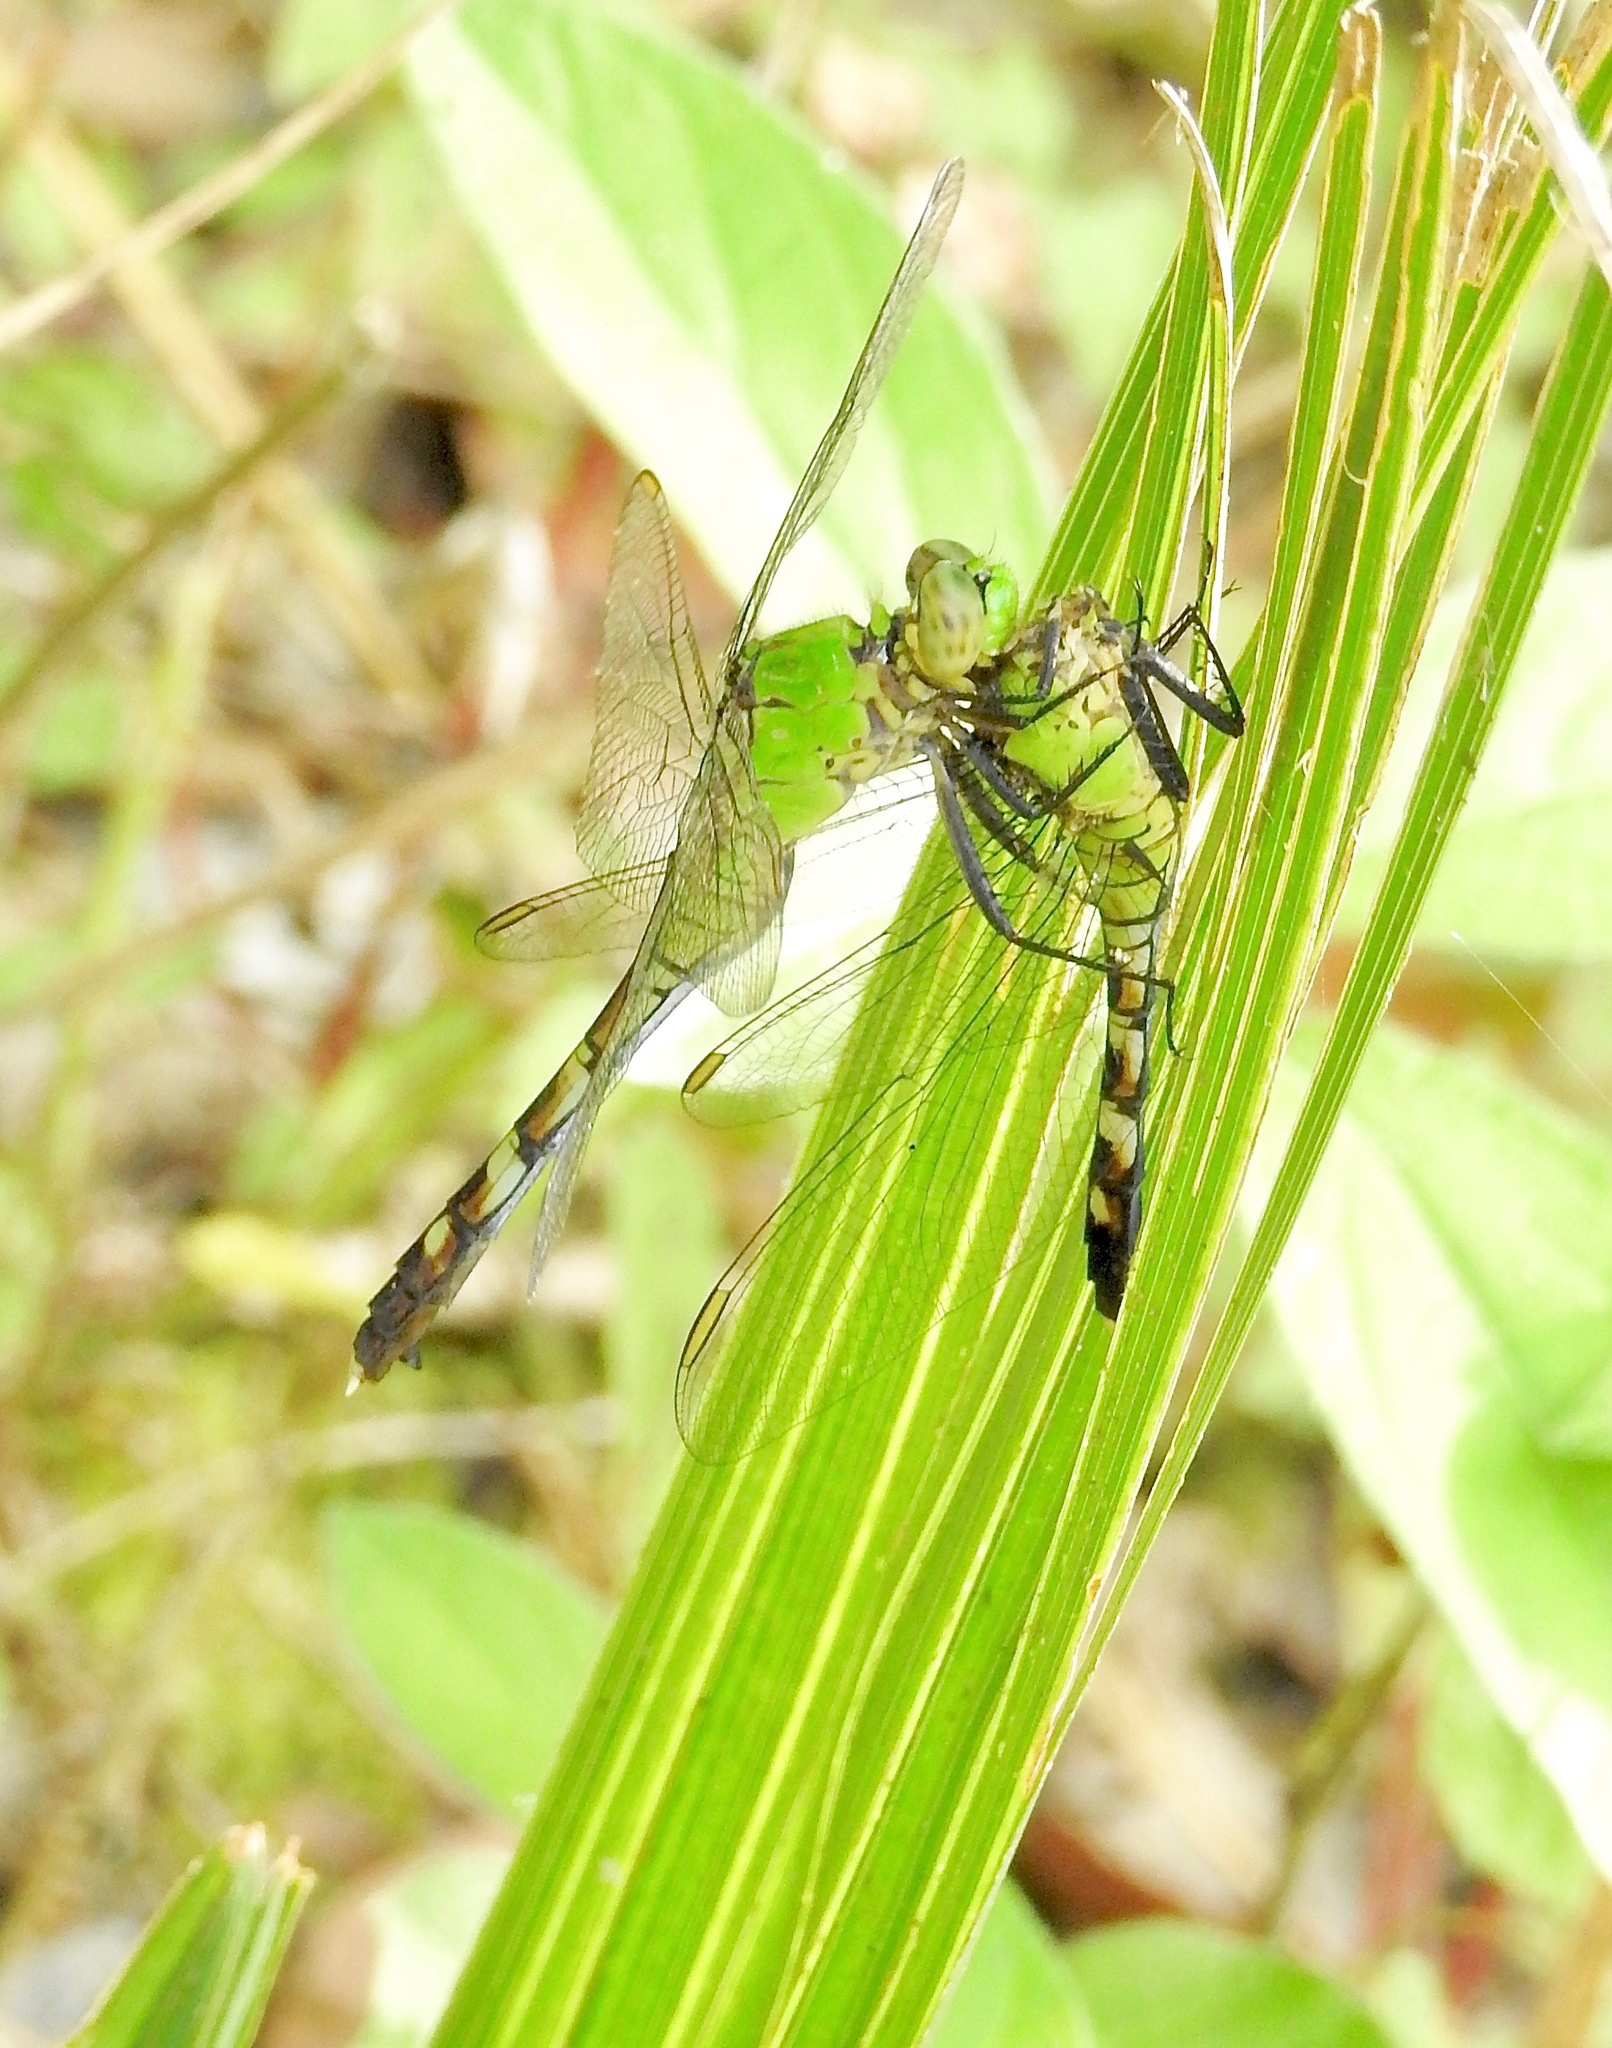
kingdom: Animalia
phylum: Arthropoda
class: Insecta
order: Odonata
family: Libellulidae
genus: Erythemis
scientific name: Erythemis simplicicollis
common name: Eastern pondhawk
